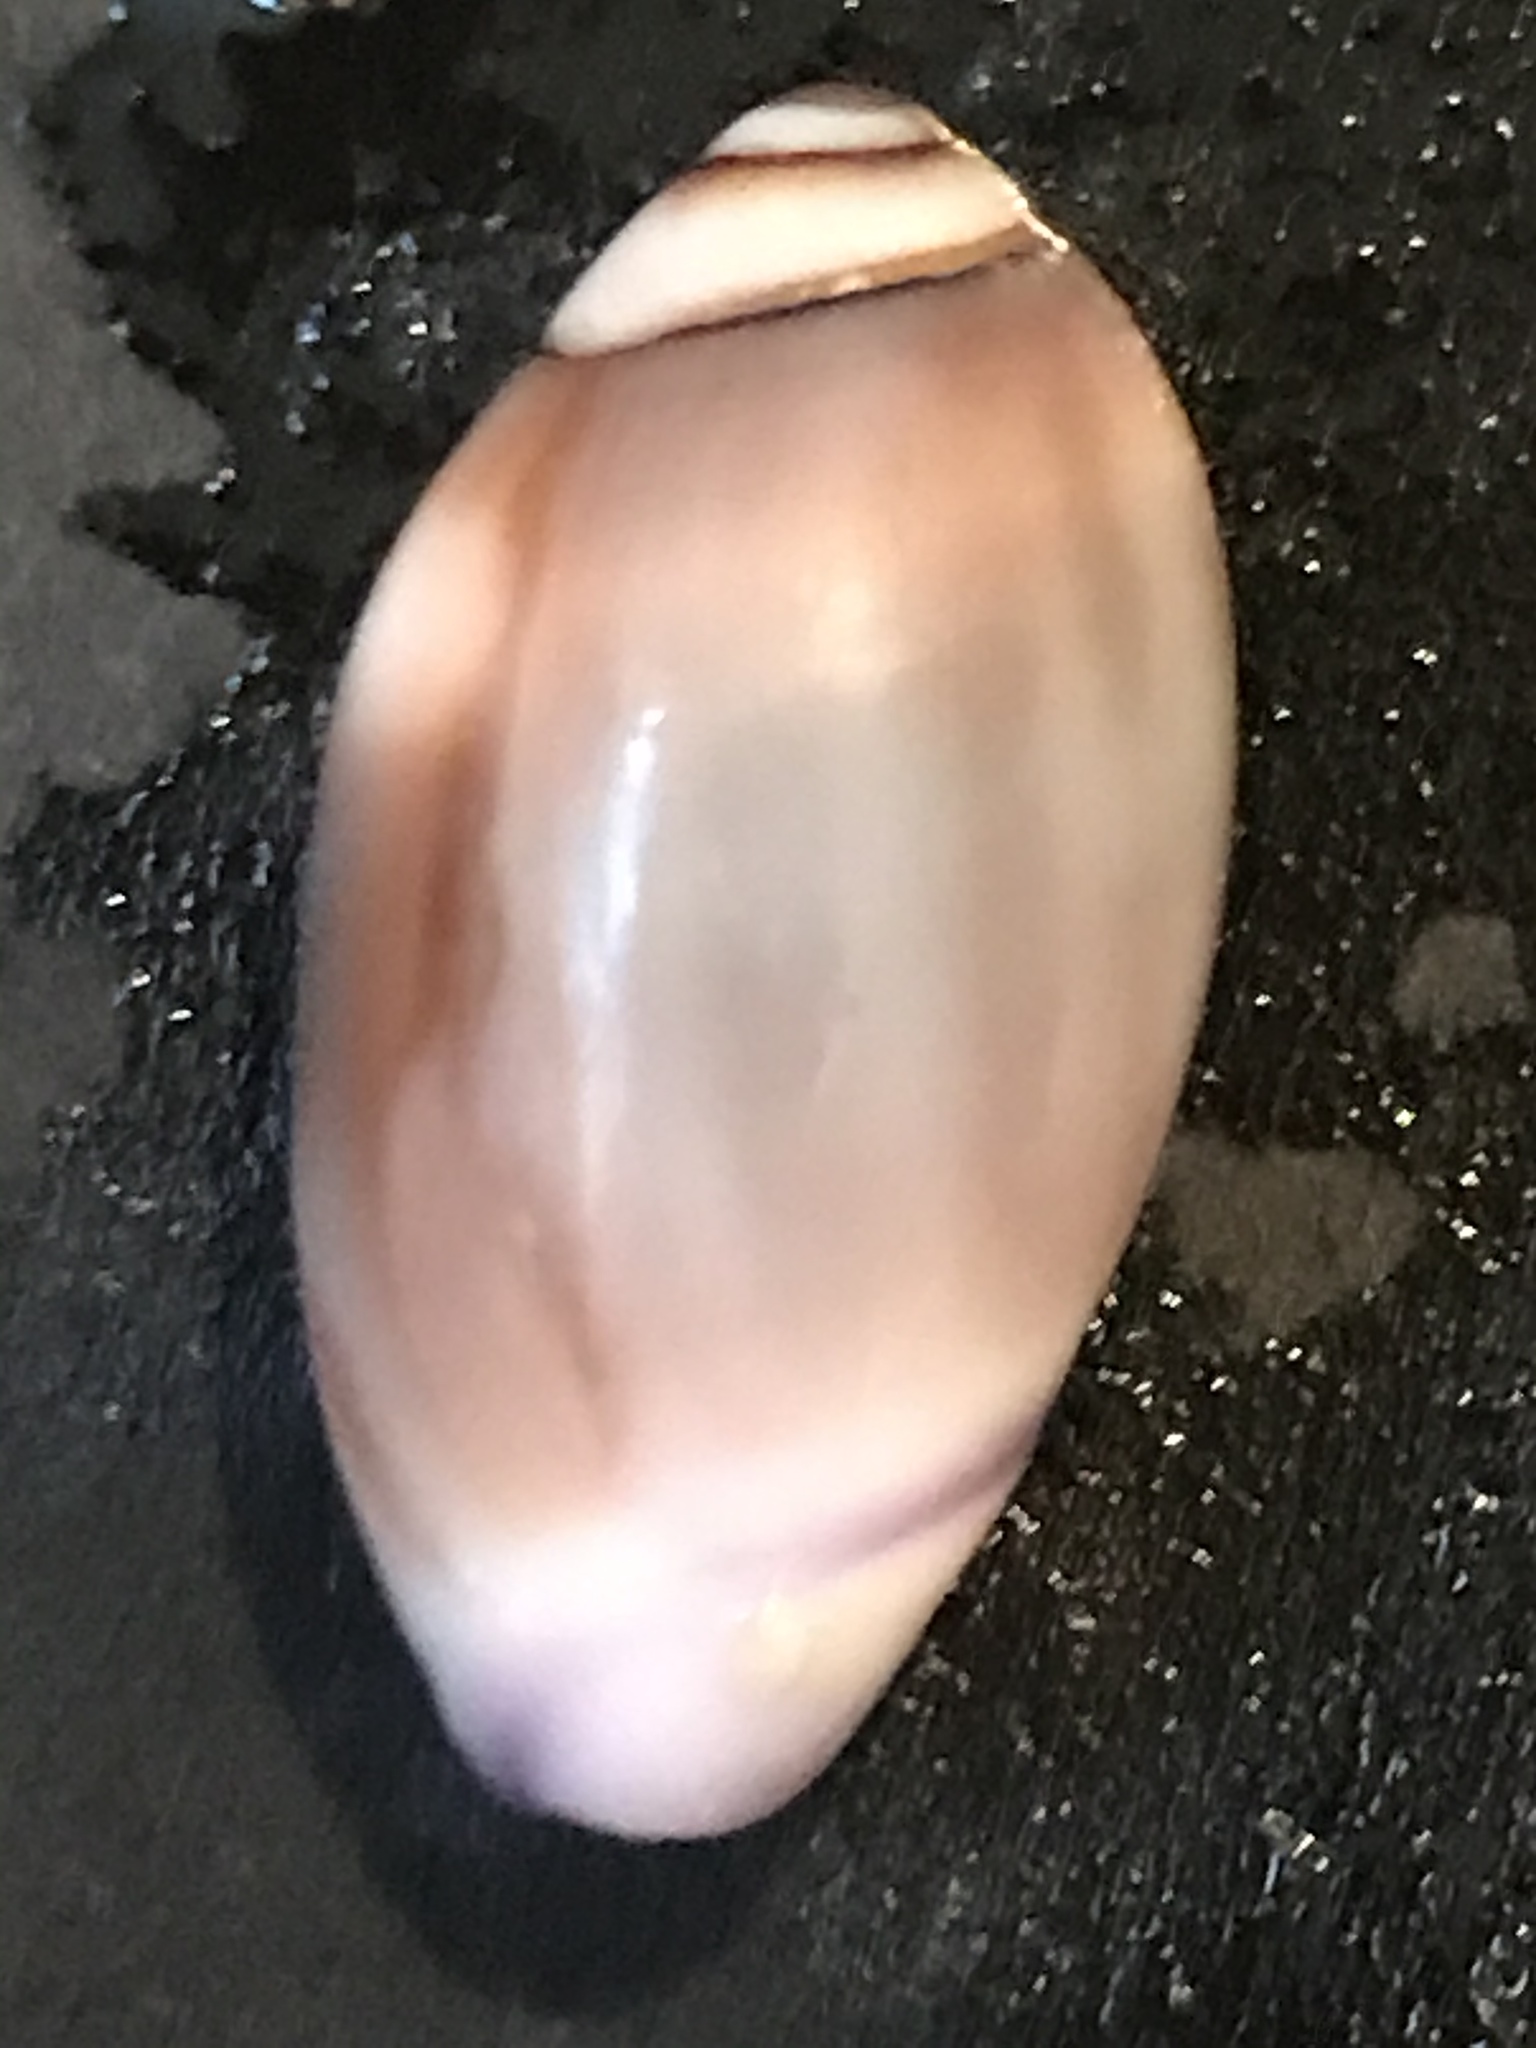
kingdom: Animalia
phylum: Mollusca
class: Gastropoda
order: Neogastropoda
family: Olividae
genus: Callianax
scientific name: Callianax biplicata
